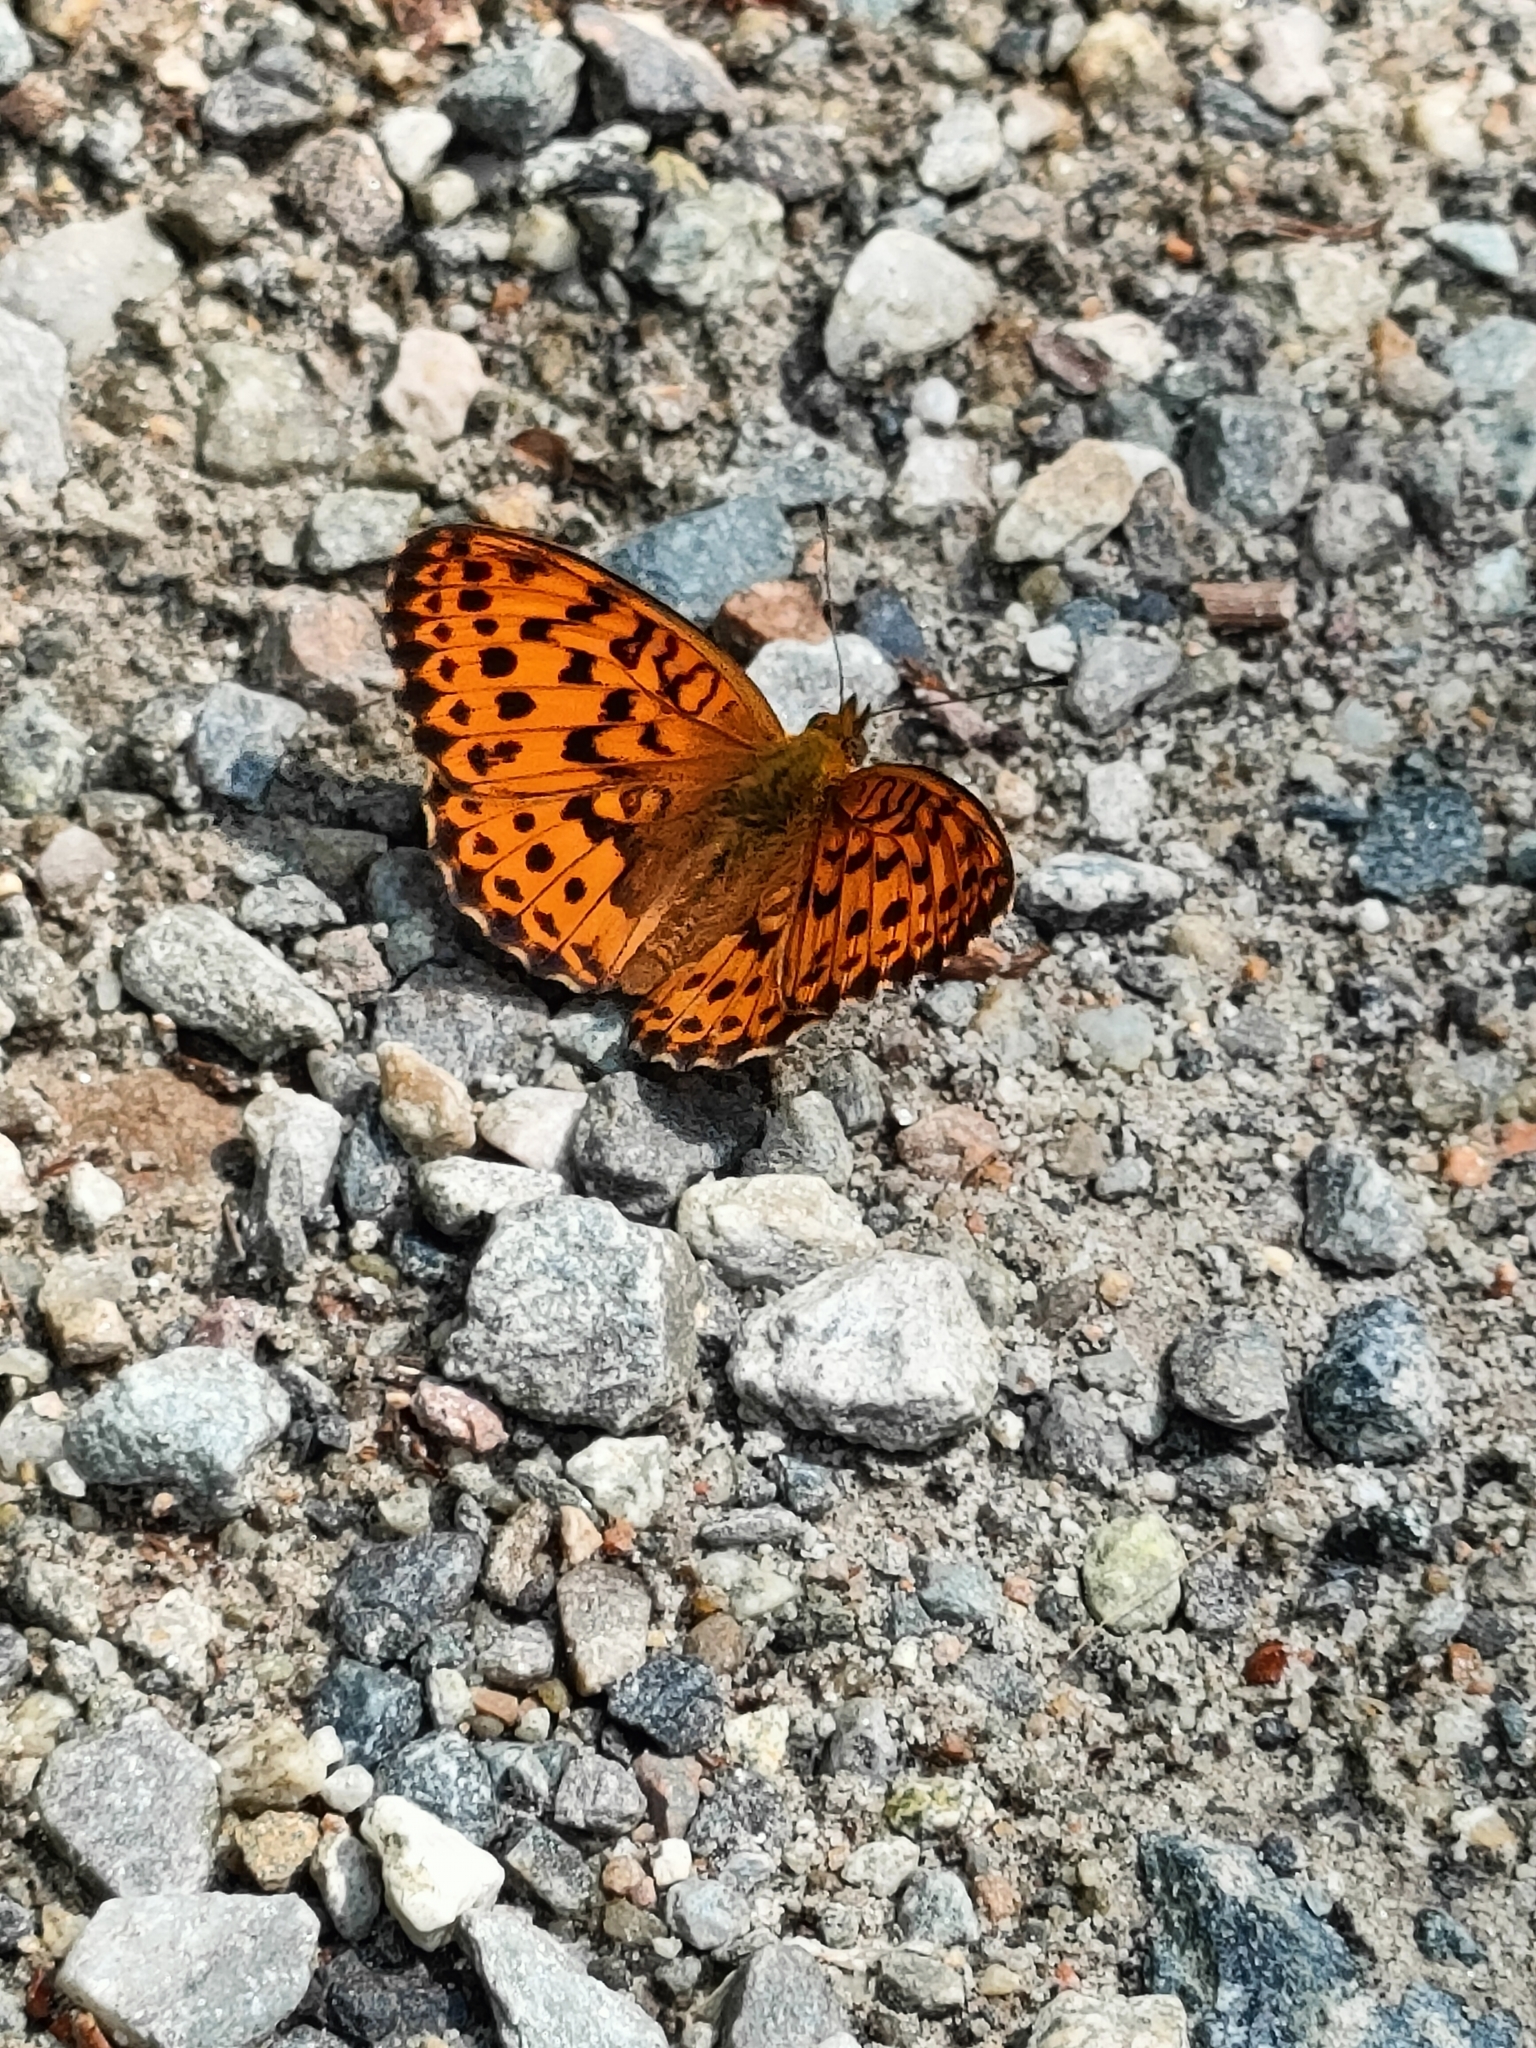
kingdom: Animalia
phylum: Arthropoda
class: Insecta
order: Lepidoptera
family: Nymphalidae
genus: Brenthis
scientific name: Brenthis daphne
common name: Marbled fritillary
